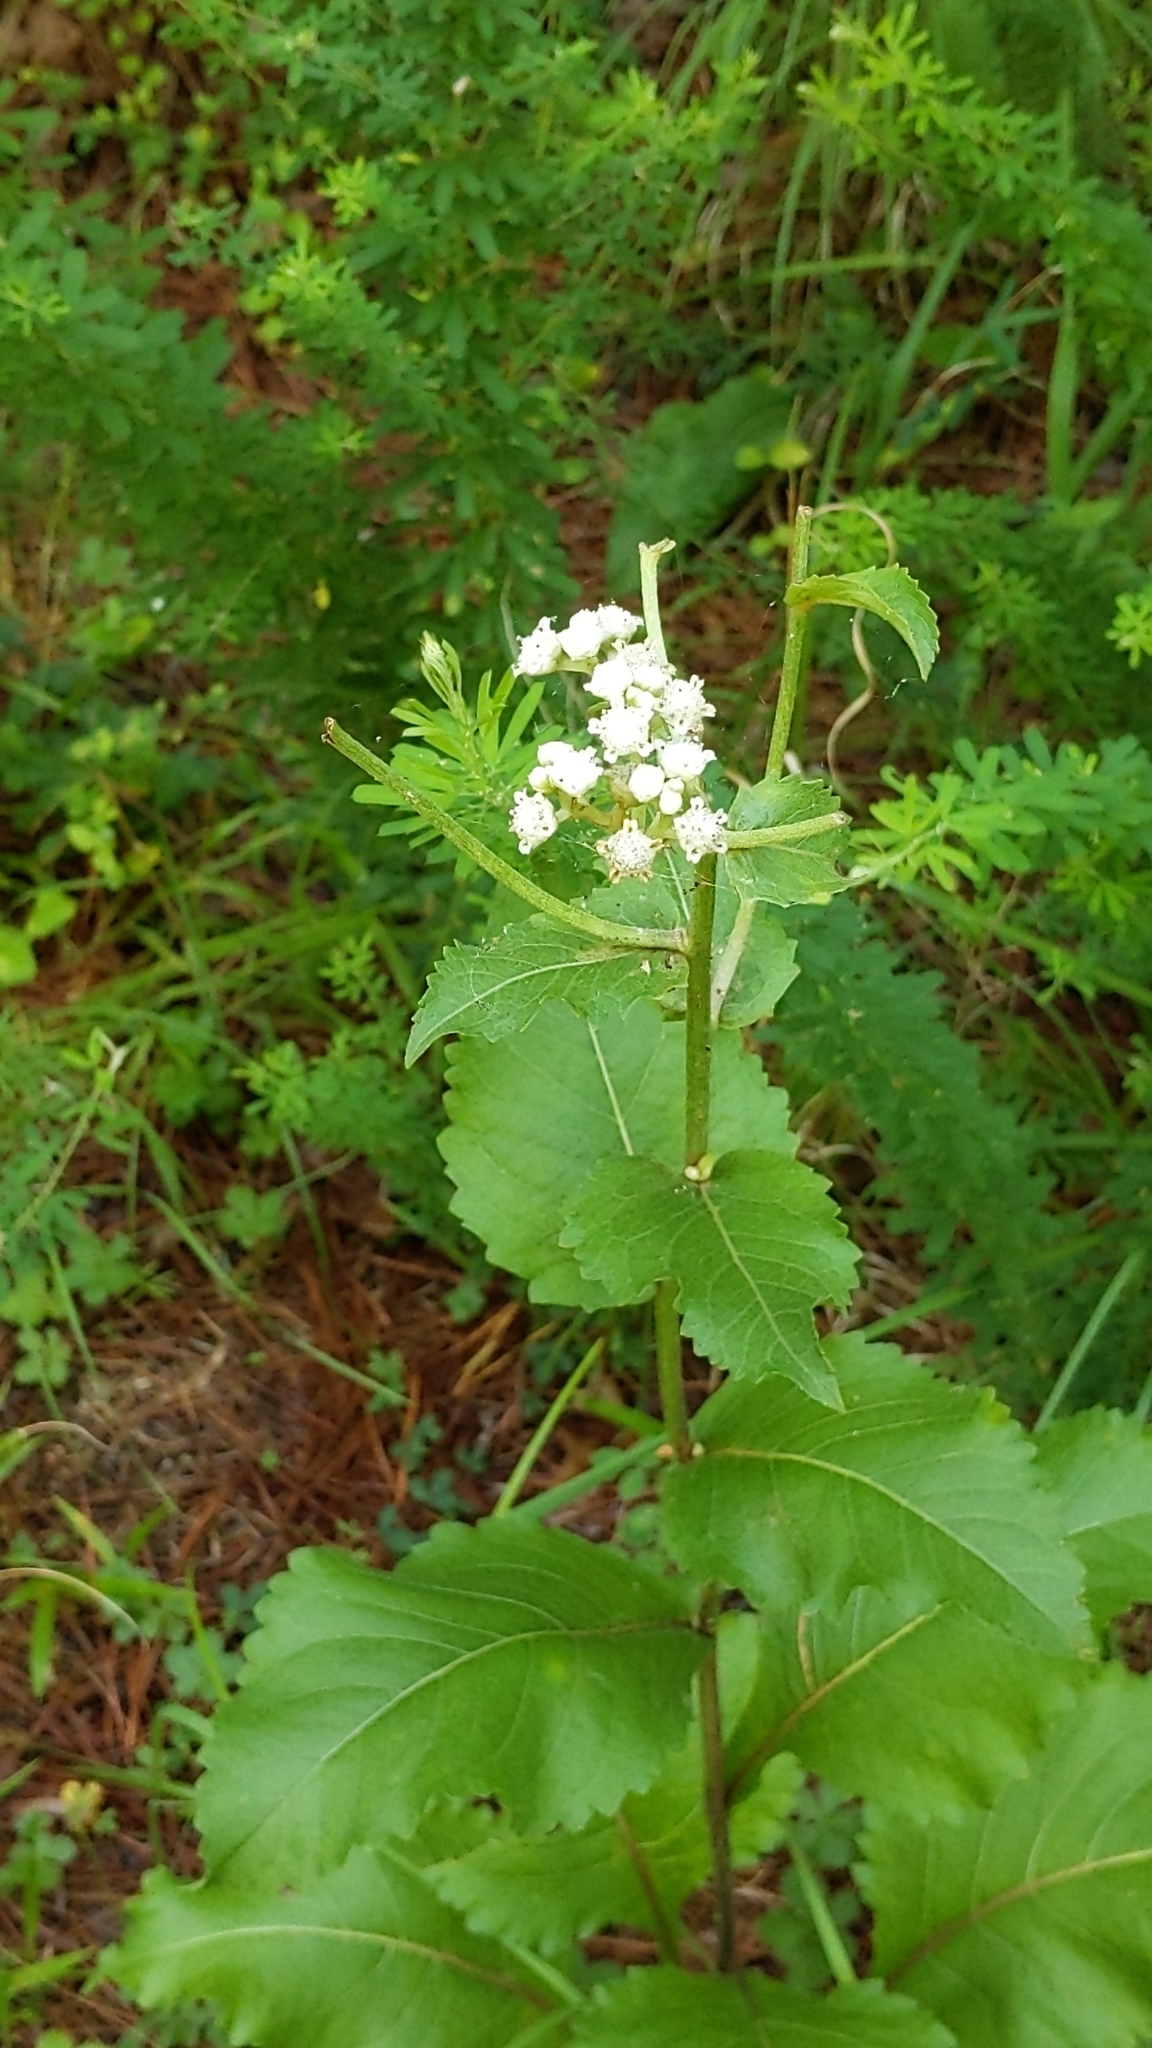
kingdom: Plantae
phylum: Tracheophyta
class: Magnoliopsida
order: Asterales
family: Asteraceae
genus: Parthenium
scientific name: Parthenium integrifolium
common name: American feverfew
